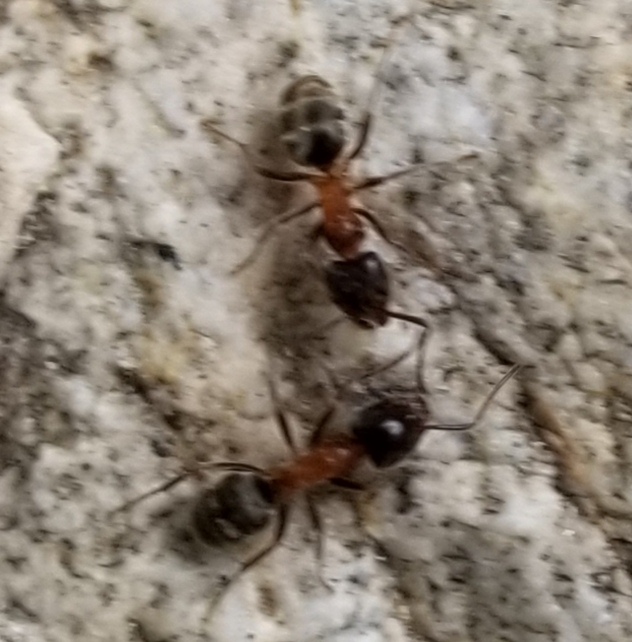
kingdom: Animalia
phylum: Arthropoda
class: Insecta
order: Hymenoptera
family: Formicidae
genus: Liometopum
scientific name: Liometopum occidentale
